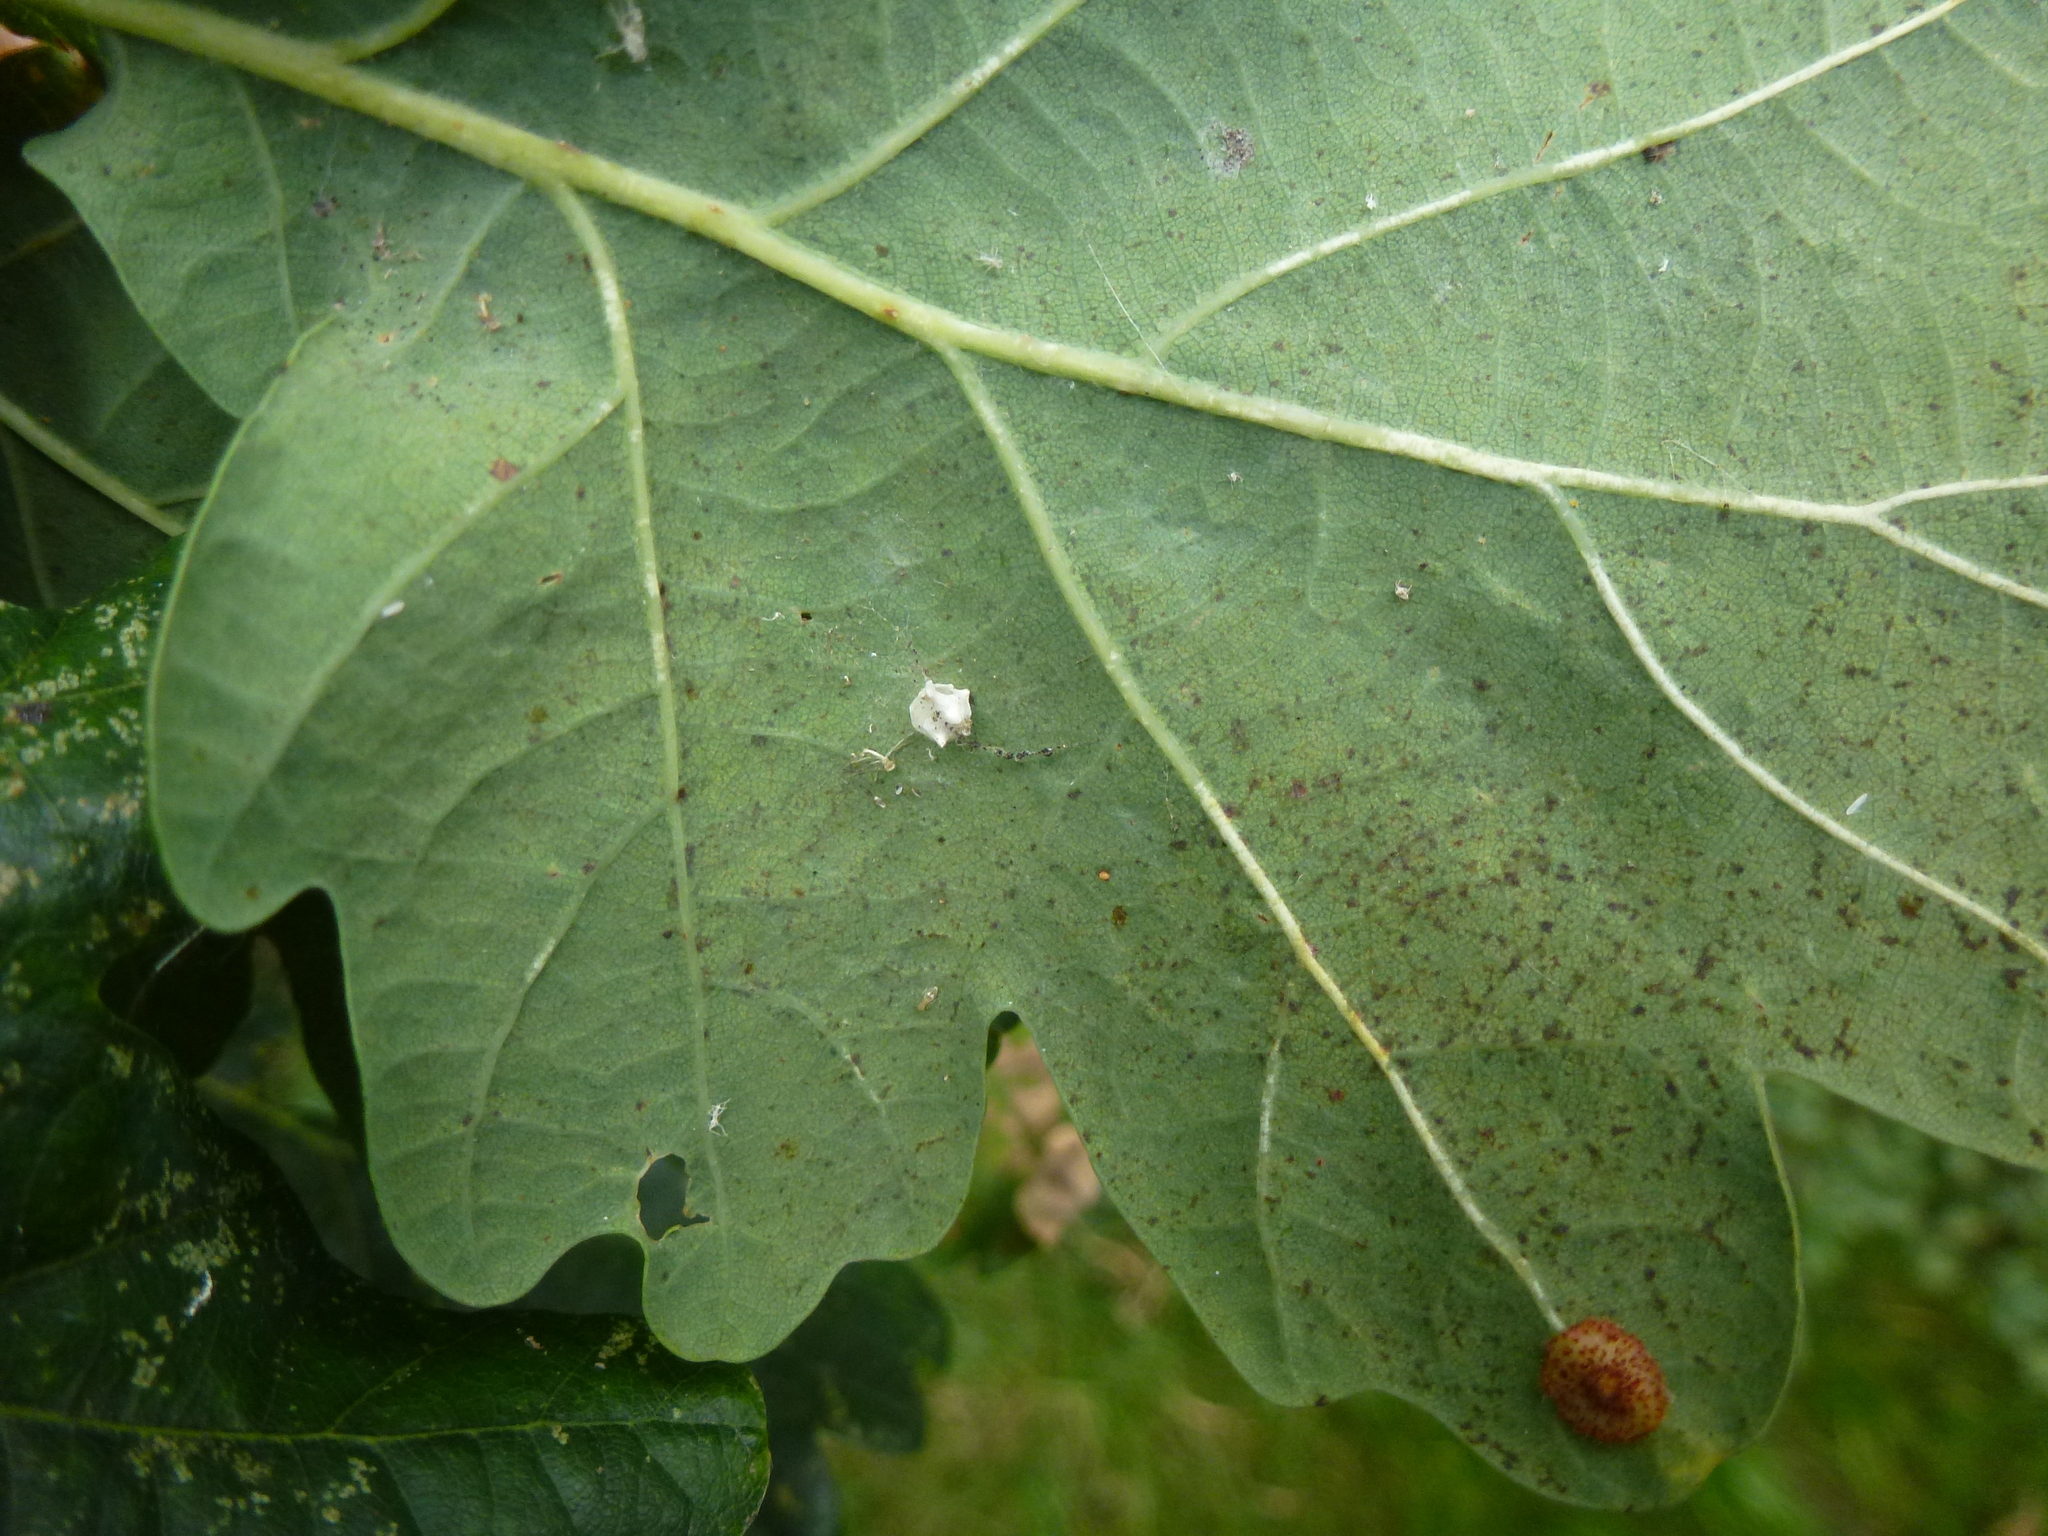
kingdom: Animalia
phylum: Arthropoda
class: Arachnida
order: Araneae
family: Theridiidae
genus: Paidiscura
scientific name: Paidiscura pallens
